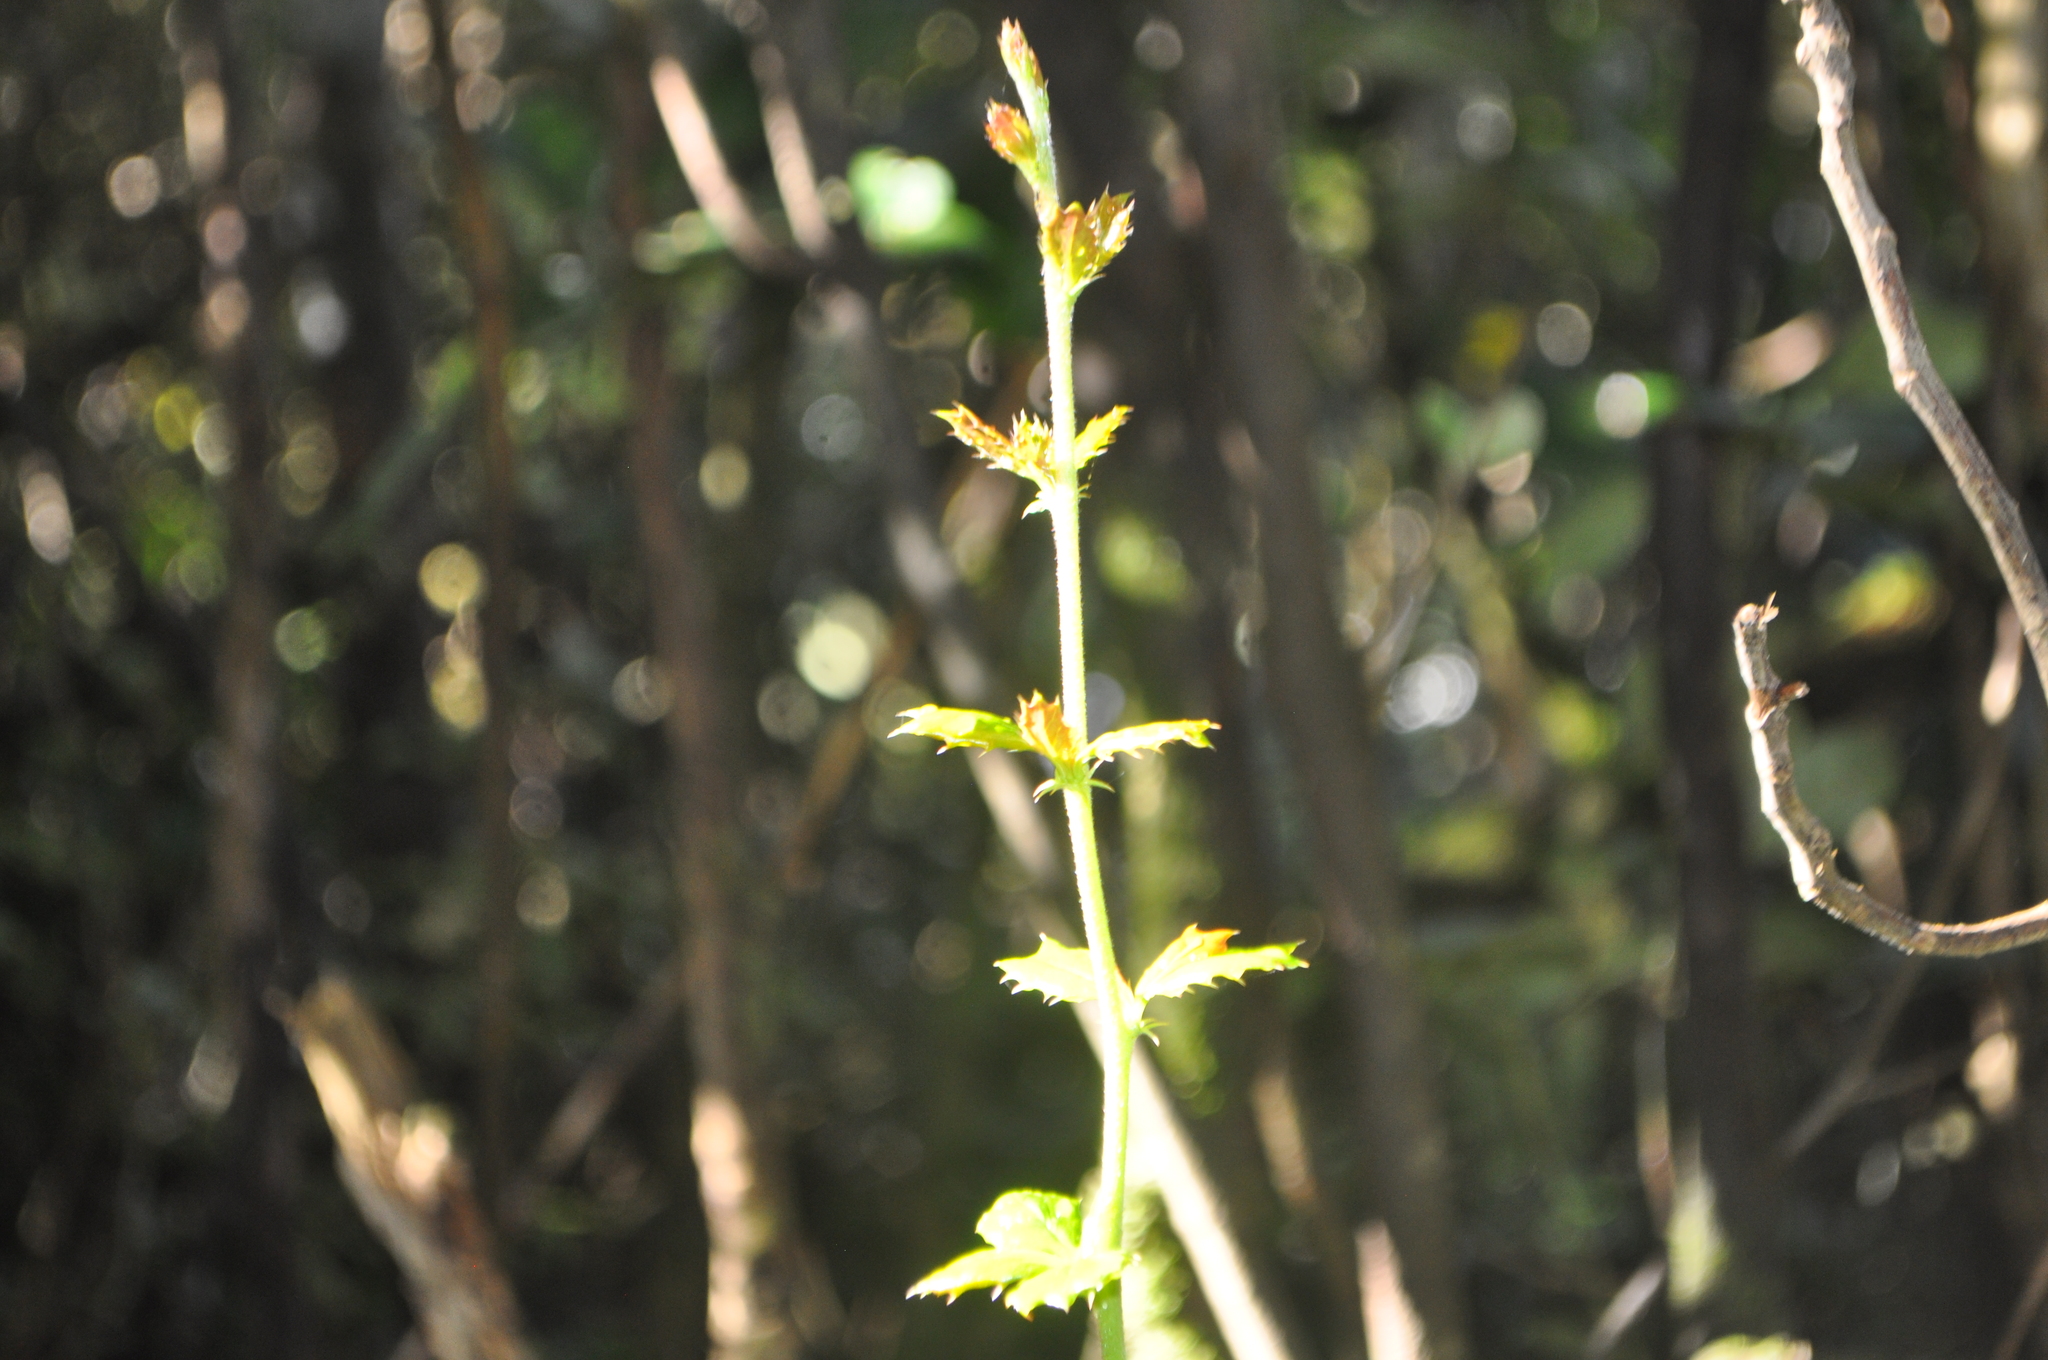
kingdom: Plantae
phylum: Tracheophyta
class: Magnoliopsida
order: Ranunculales
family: Berberidaceae
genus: Berberis
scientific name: Berberis darwinii
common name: Darwin's barberry
